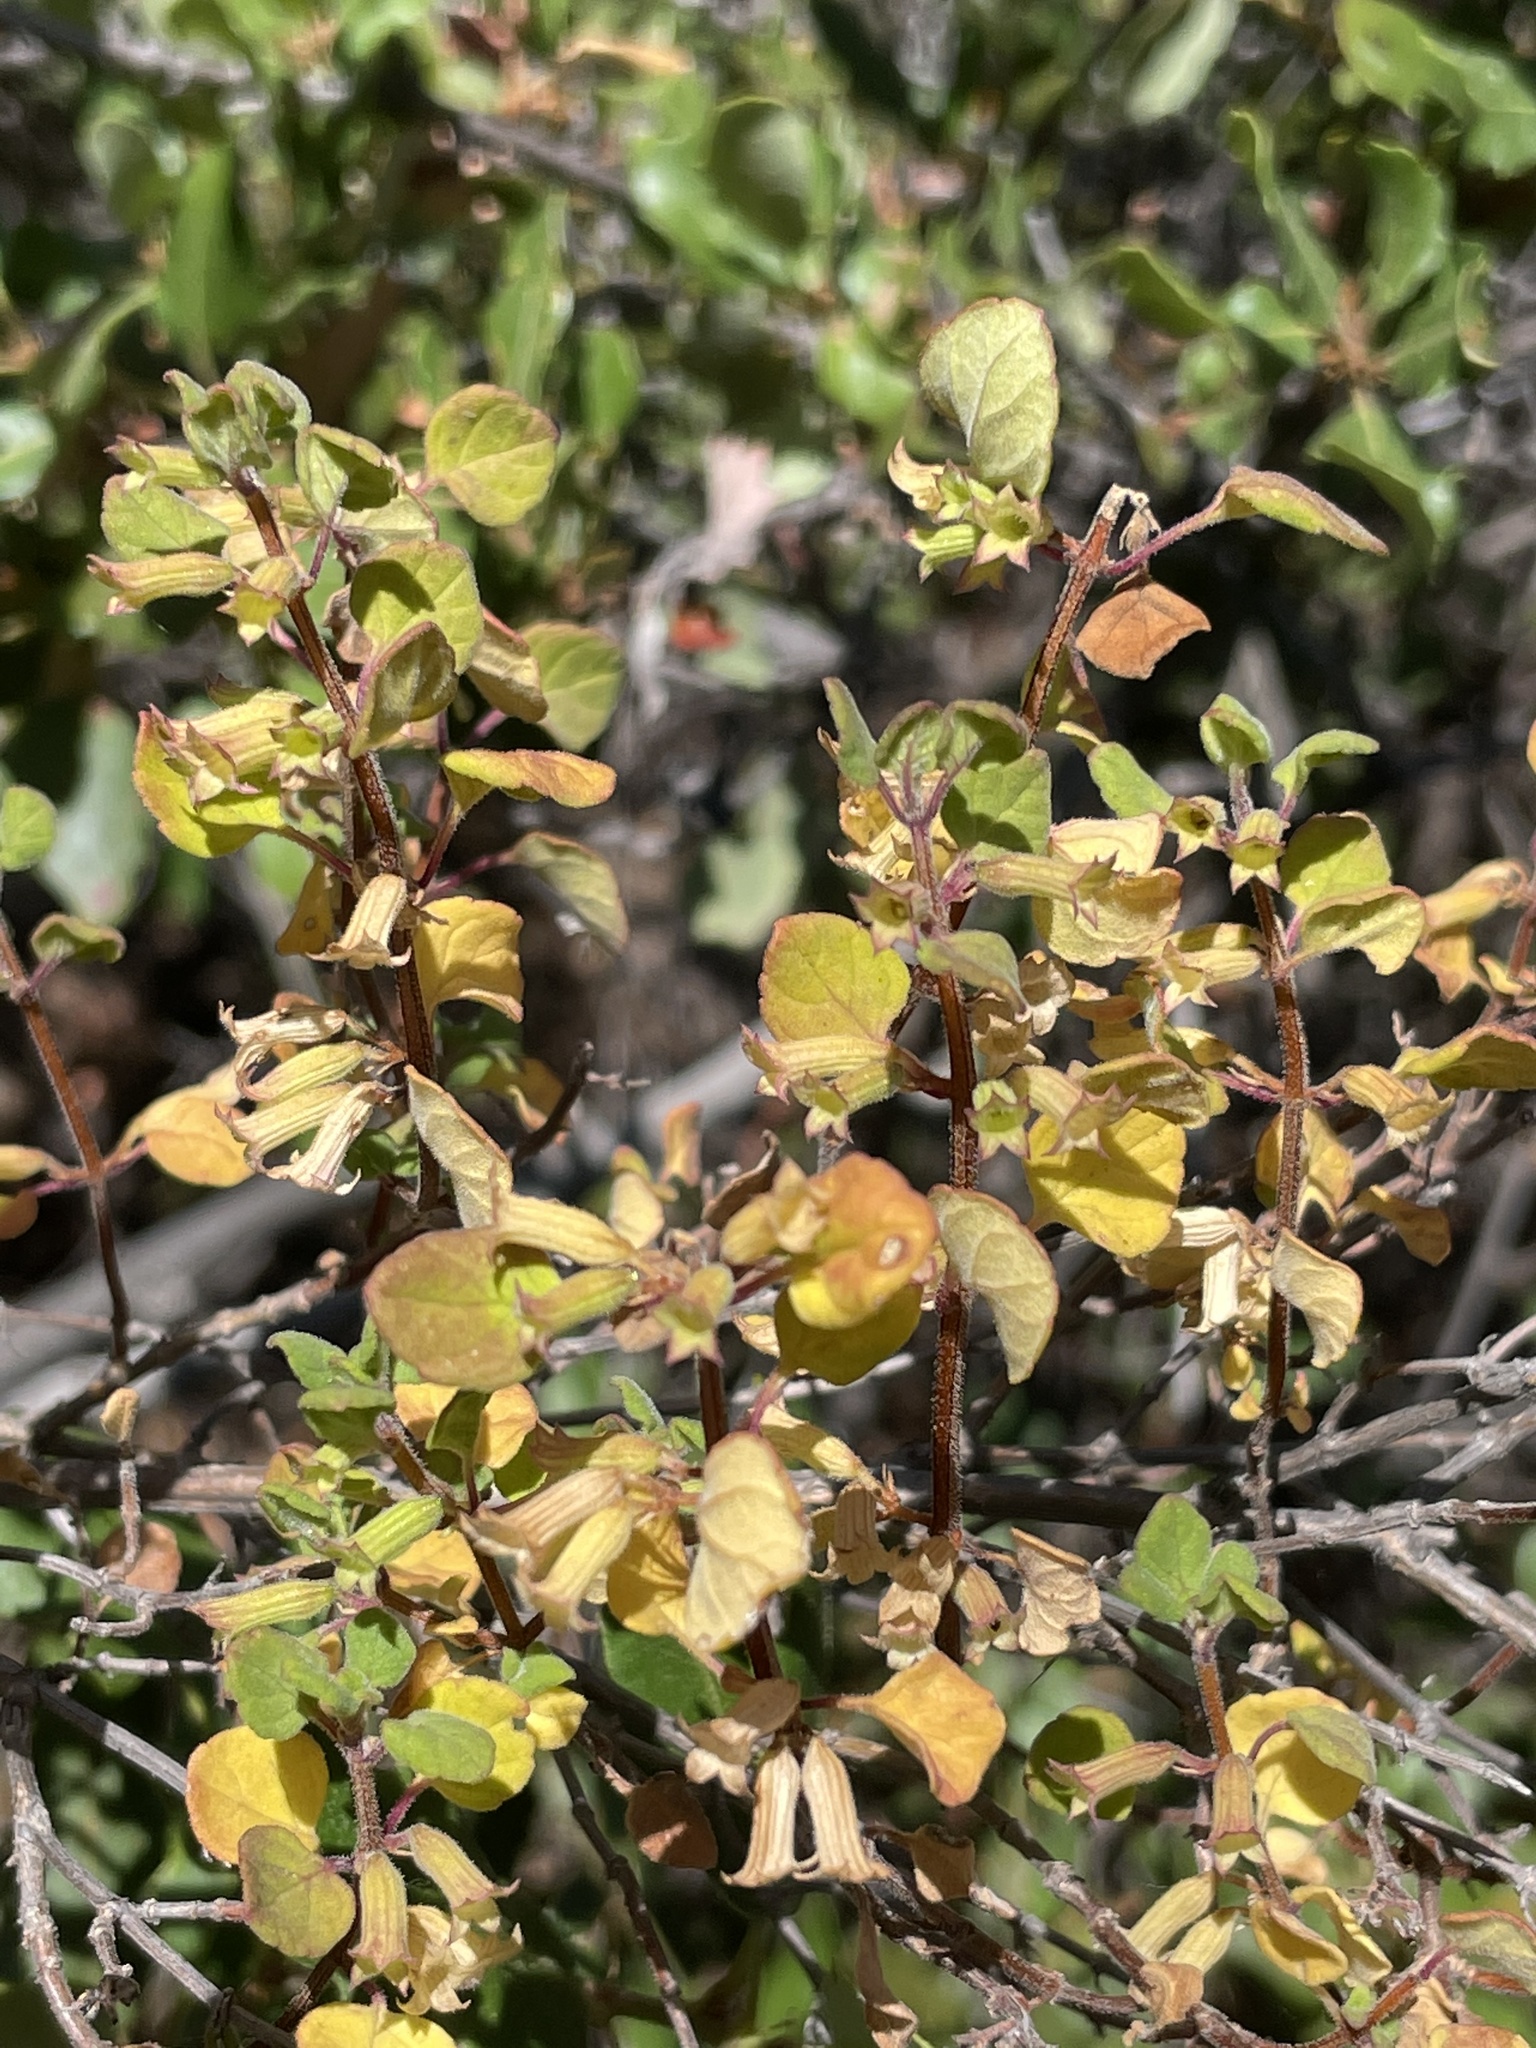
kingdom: Plantae
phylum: Tracheophyta
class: Magnoliopsida
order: Lamiales
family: Lamiaceae
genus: Clinopodium
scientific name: Clinopodium chandleri
